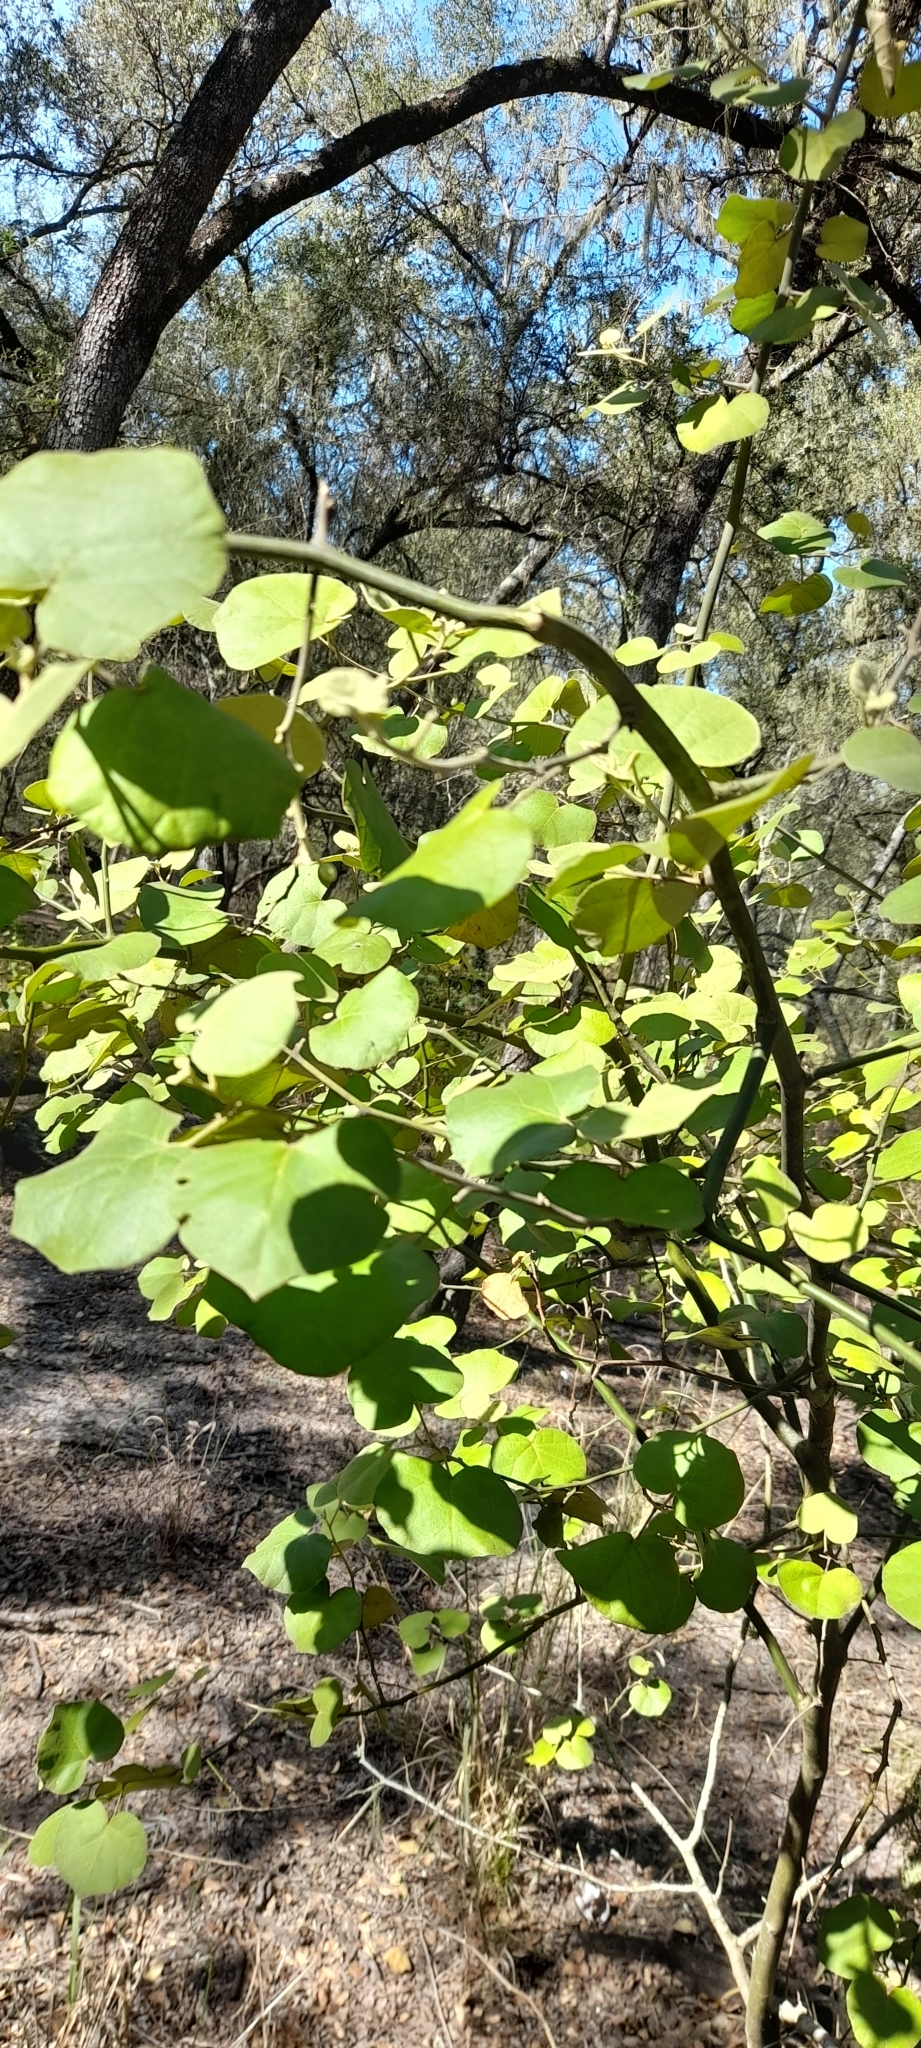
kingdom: Plantae
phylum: Tracheophyta
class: Magnoliopsida
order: Brassicales
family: Capparaceae
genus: Capparicordis
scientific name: Capparicordis tweedieana
